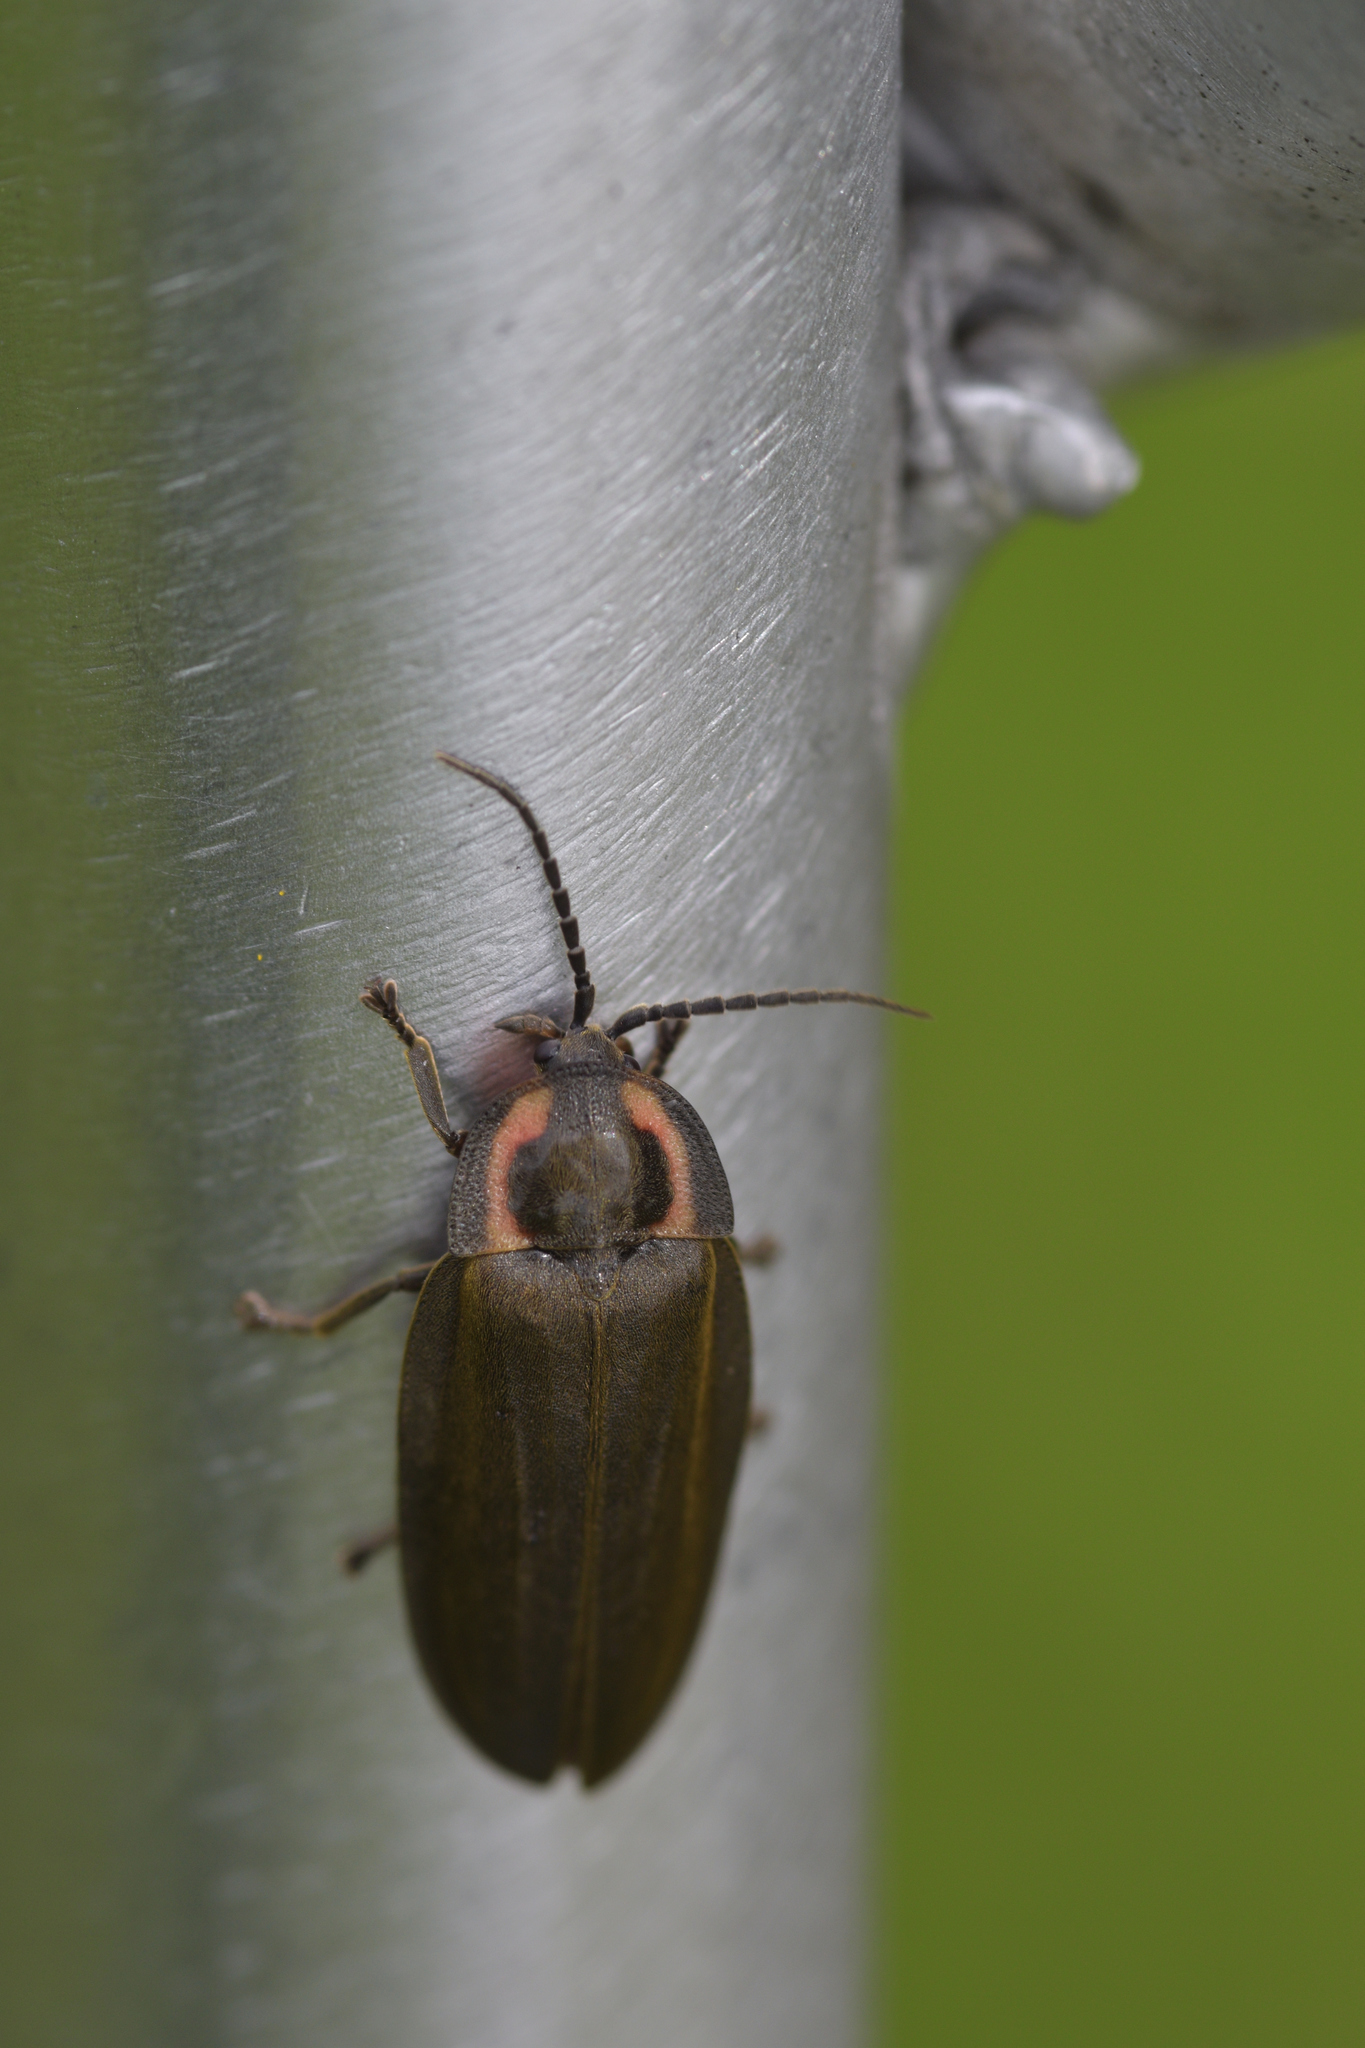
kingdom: Animalia
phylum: Arthropoda
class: Insecta
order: Coleoptera
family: Lampyridae
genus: Photinus
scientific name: Photinus corrusca
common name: Winter firefly
